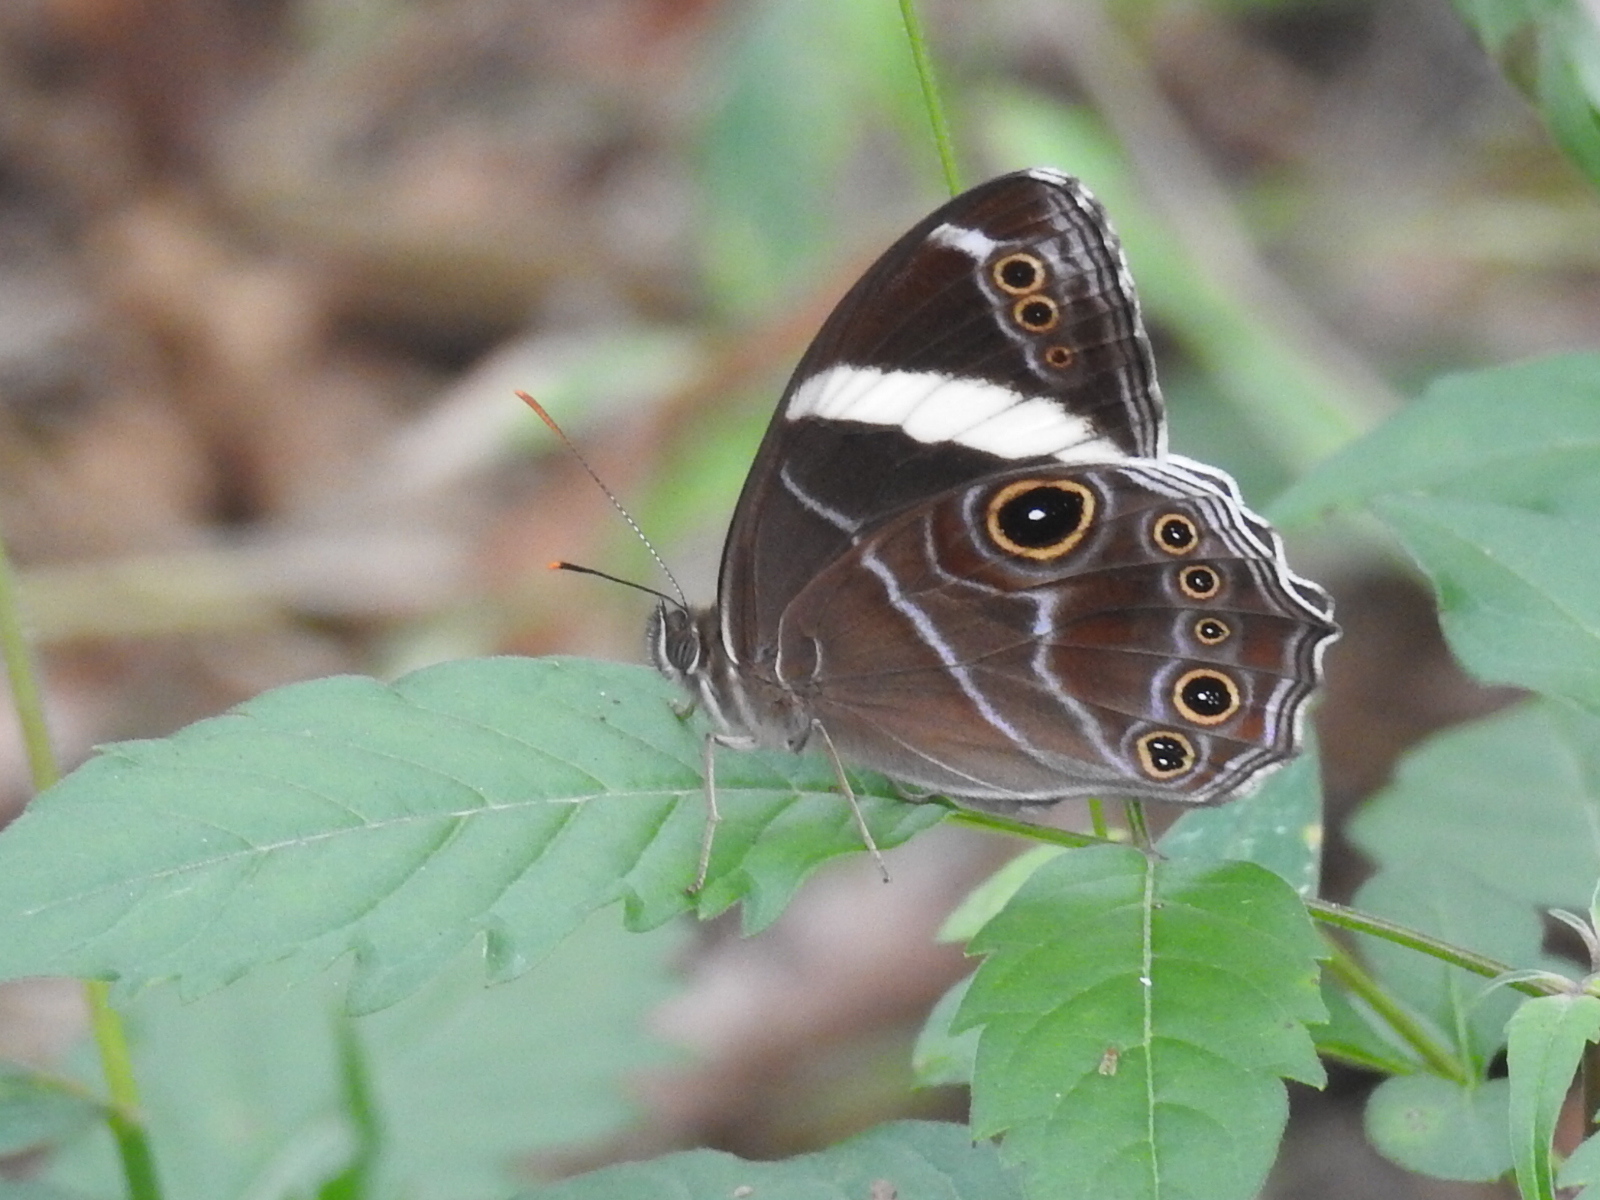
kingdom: Animalia
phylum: Arthropoda
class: Insecta
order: Lepidoptera
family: Nymphalidae
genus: Lethe
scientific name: Lethe confusa
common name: Banded treebrown
